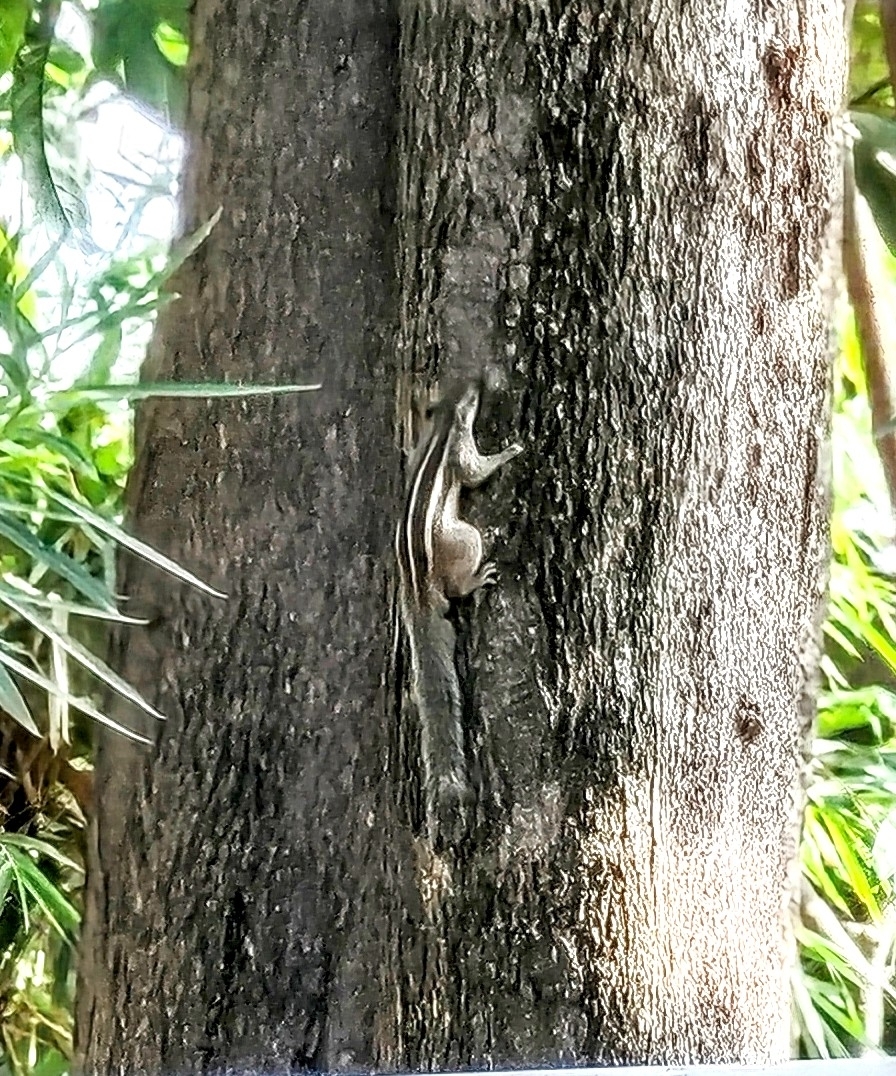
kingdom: Animalia
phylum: Chordata
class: Mammalia
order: Rodentia
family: Sciuridae
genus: Funambulus
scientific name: Funambulus pennantii
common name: Northern palm squirrel
